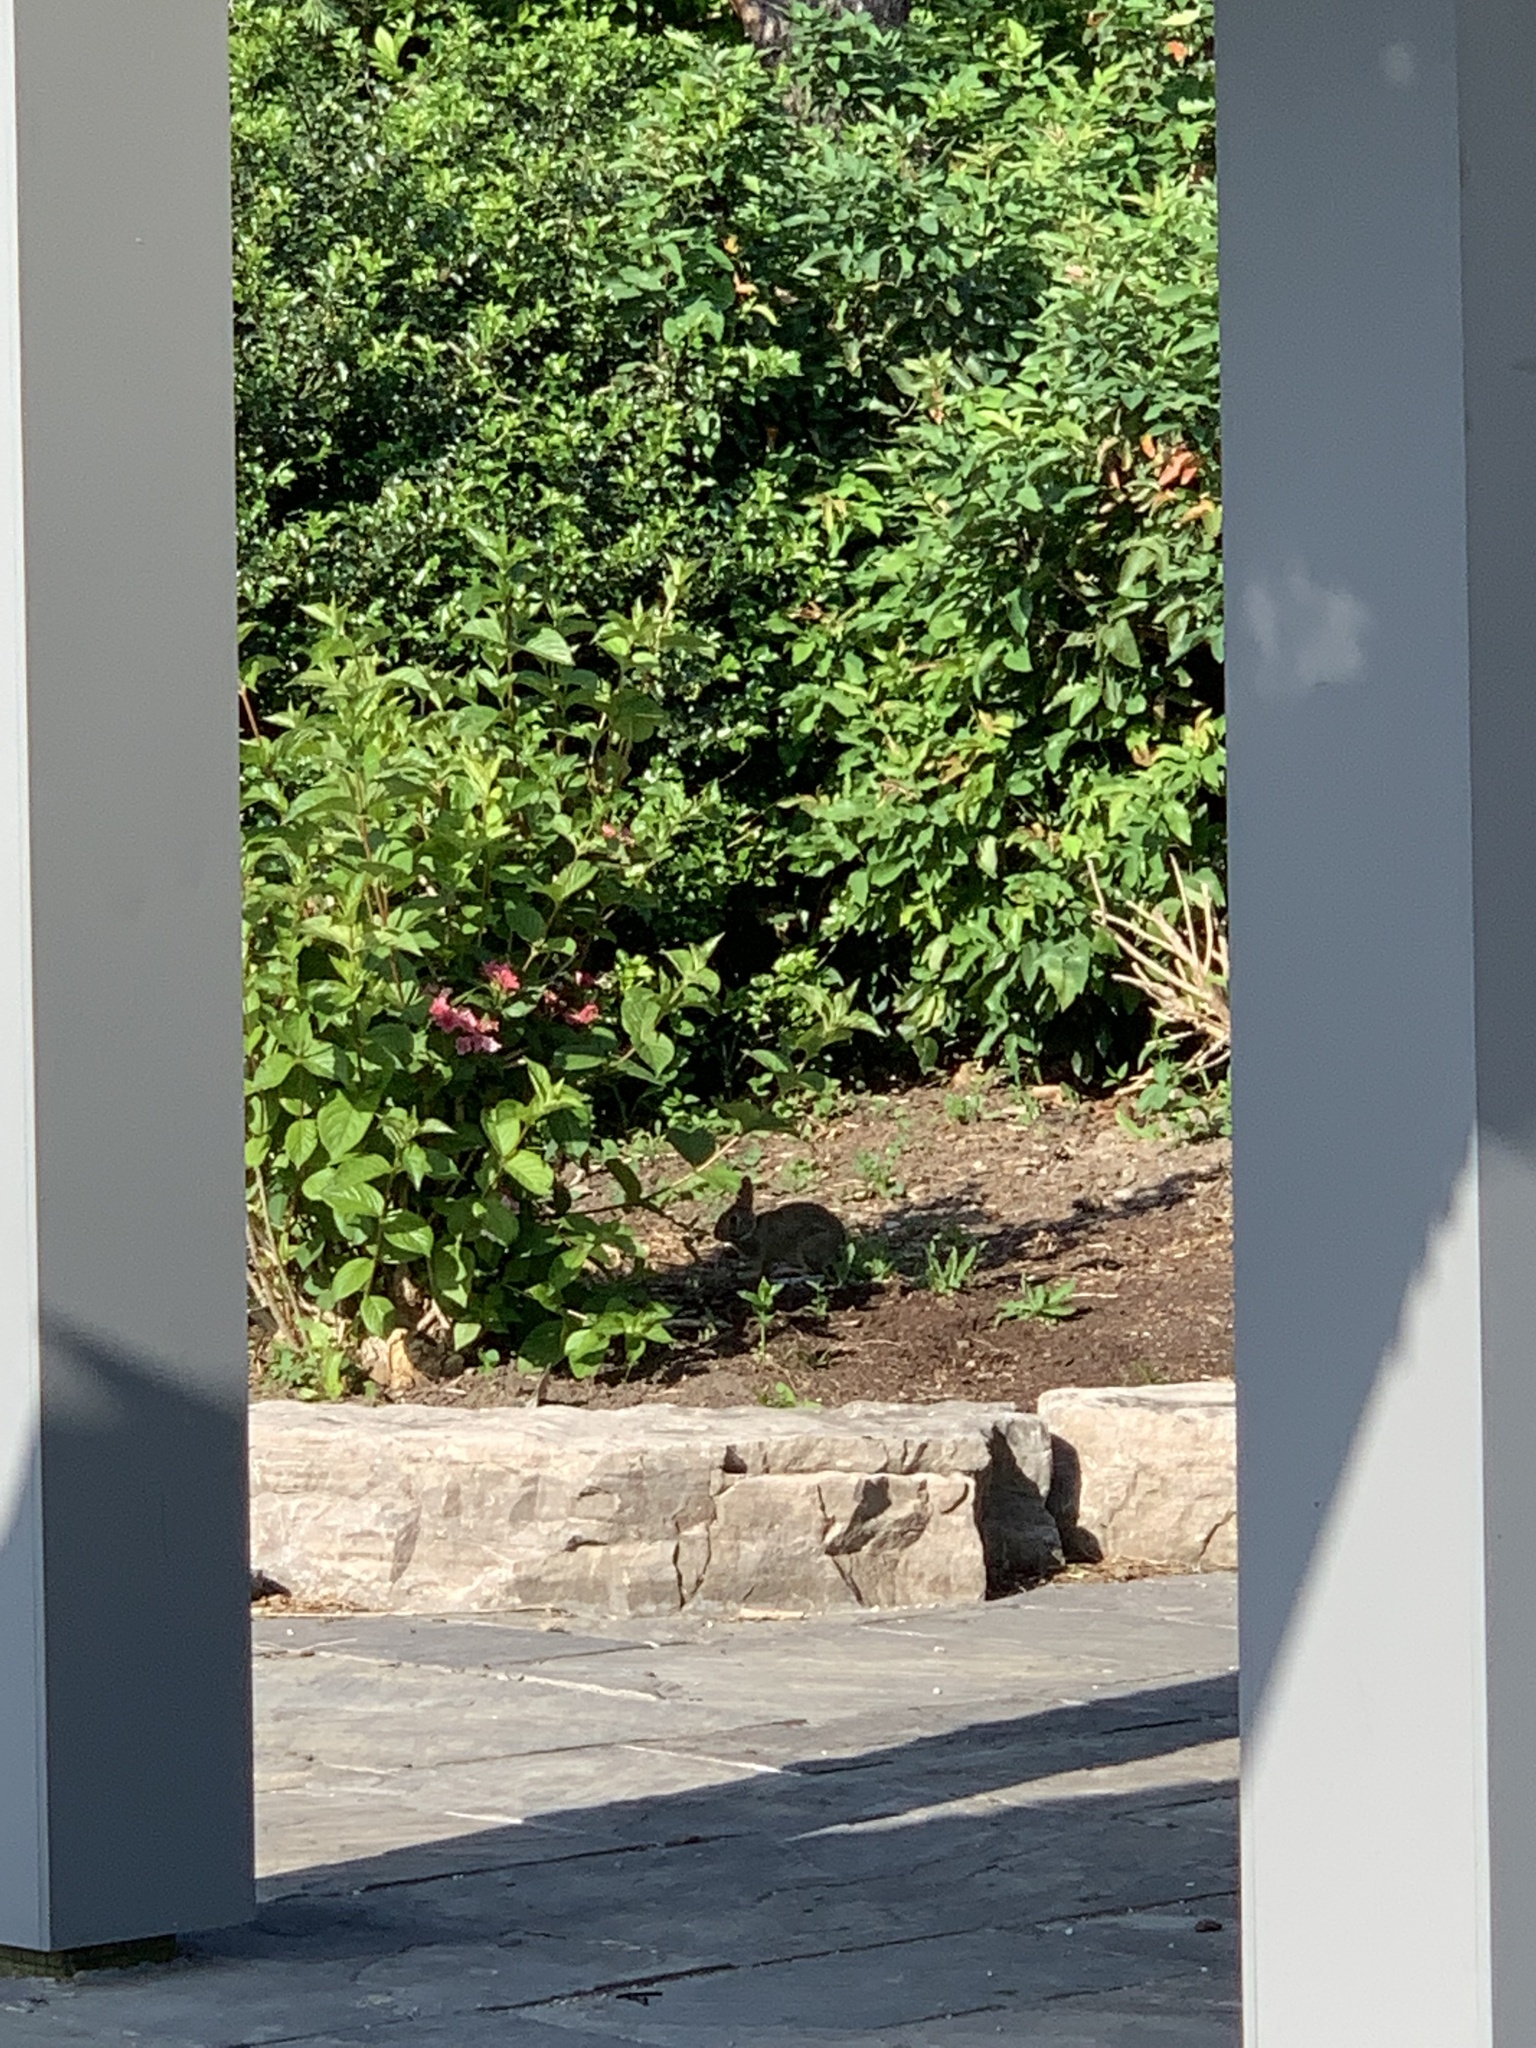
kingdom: Animalia
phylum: Chordata
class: Mammalia
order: Lagomorpha
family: Leporidae
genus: Sylvilagus
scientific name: Sylvilagus floridanus
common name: Eastern cottontail
